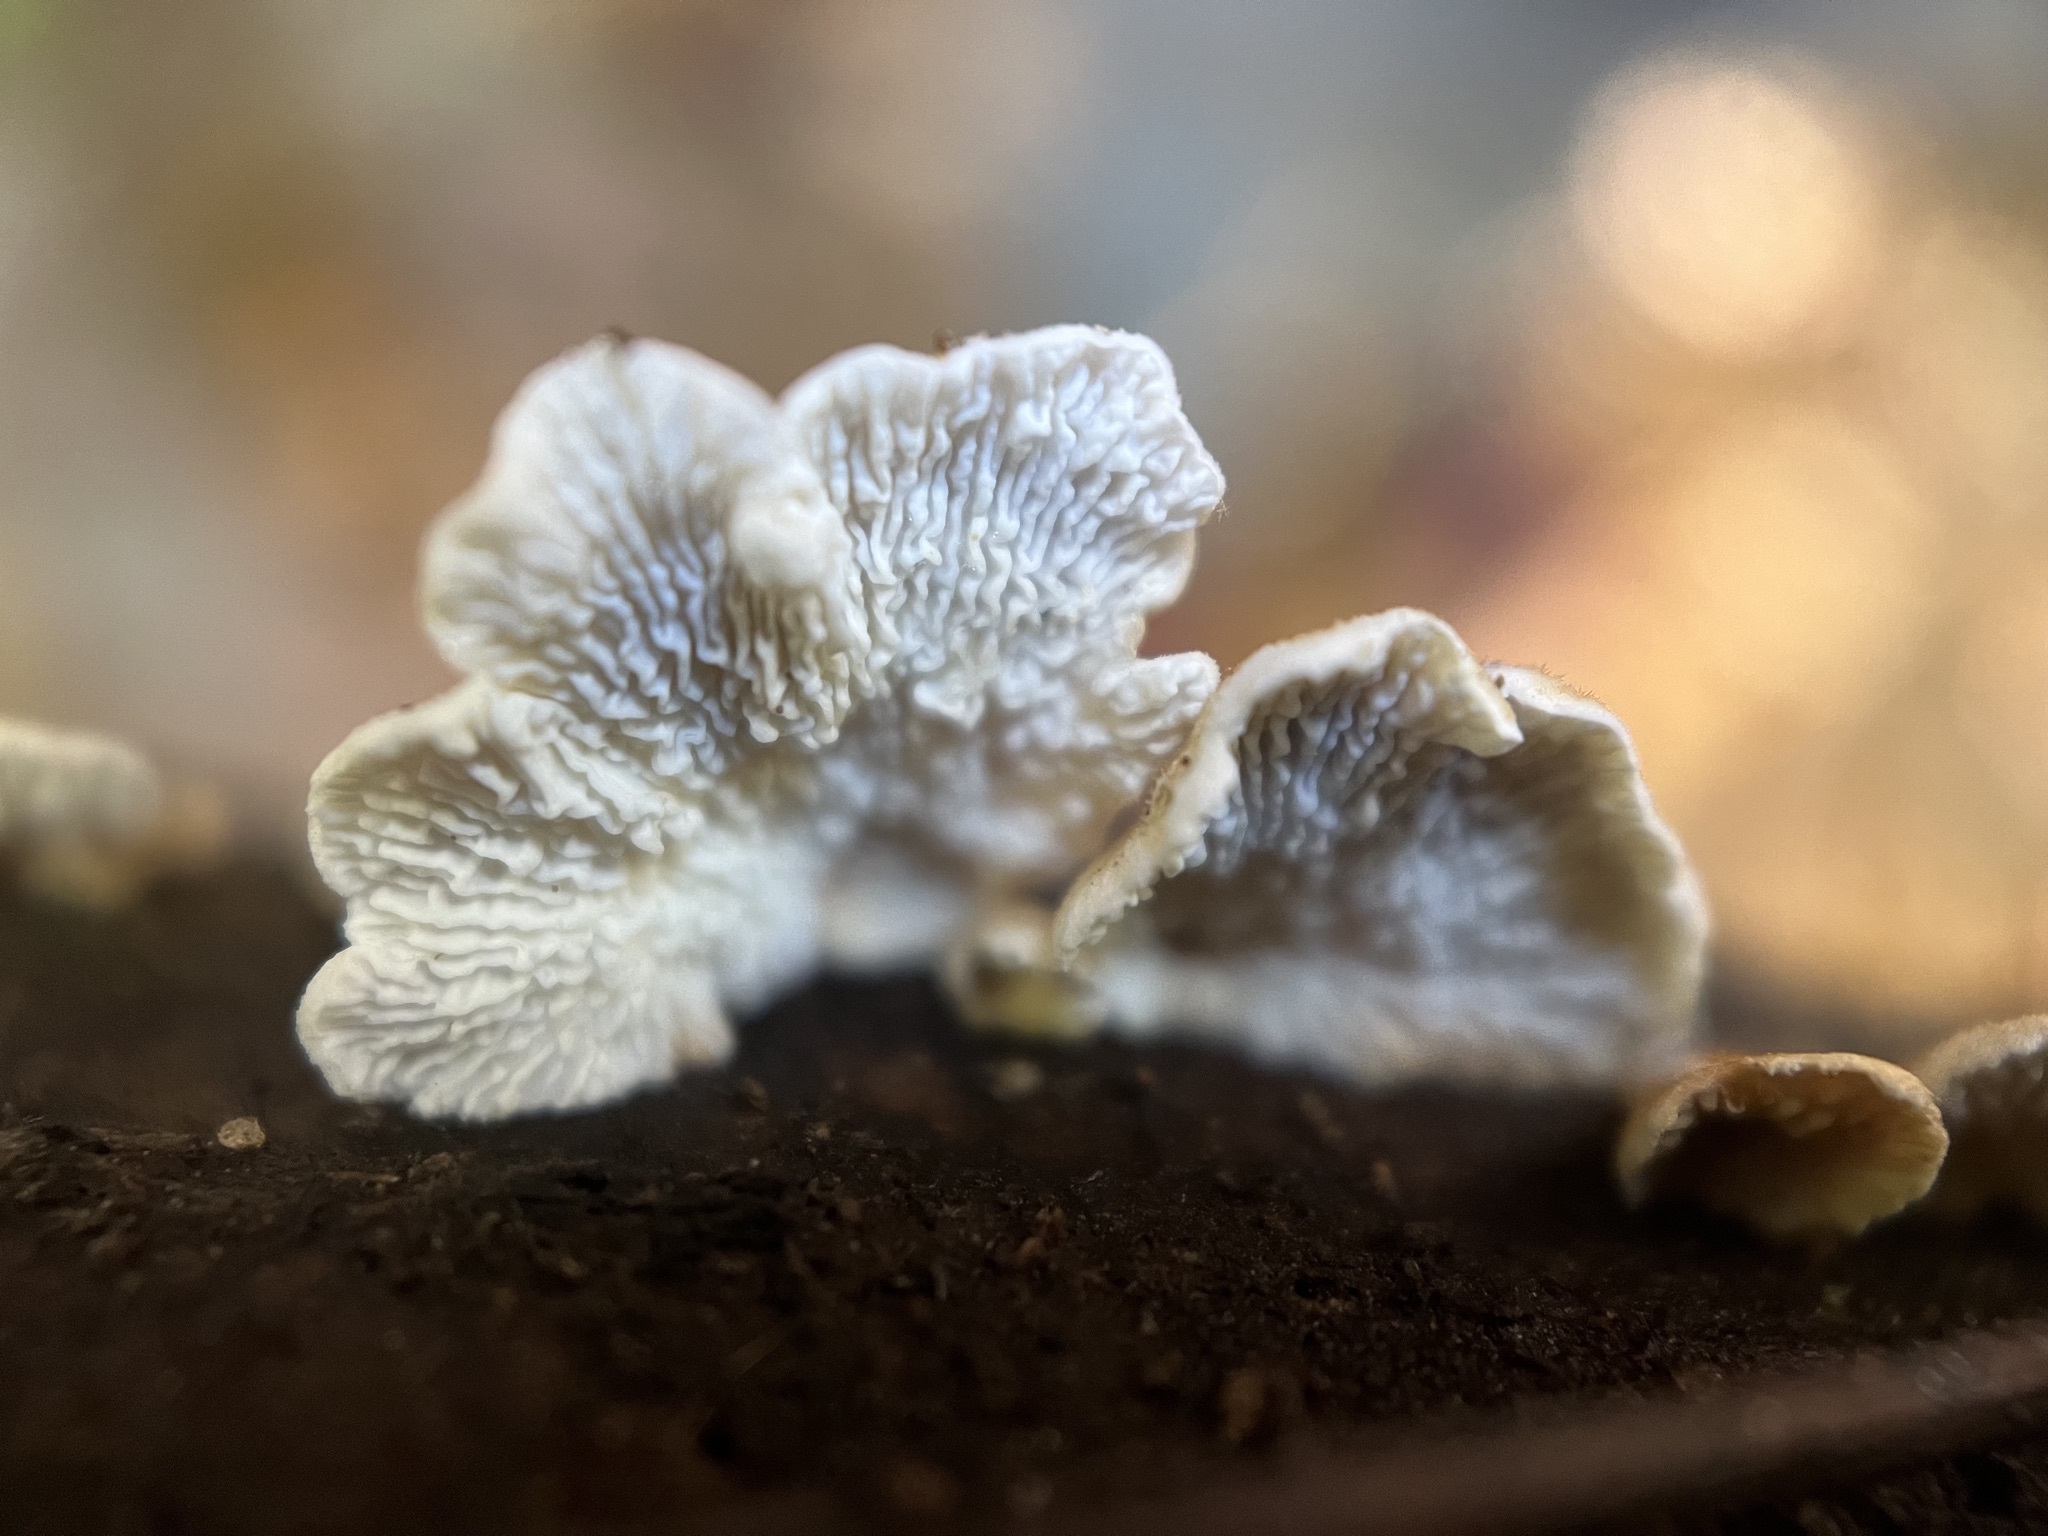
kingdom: Fungi
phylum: Basidiomycota
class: Agaricomycetes
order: Amylocorticiales
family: Amylocorticiaceae
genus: Plicaturopsis
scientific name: Plicaturopsis crispa
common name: Crimped gill
